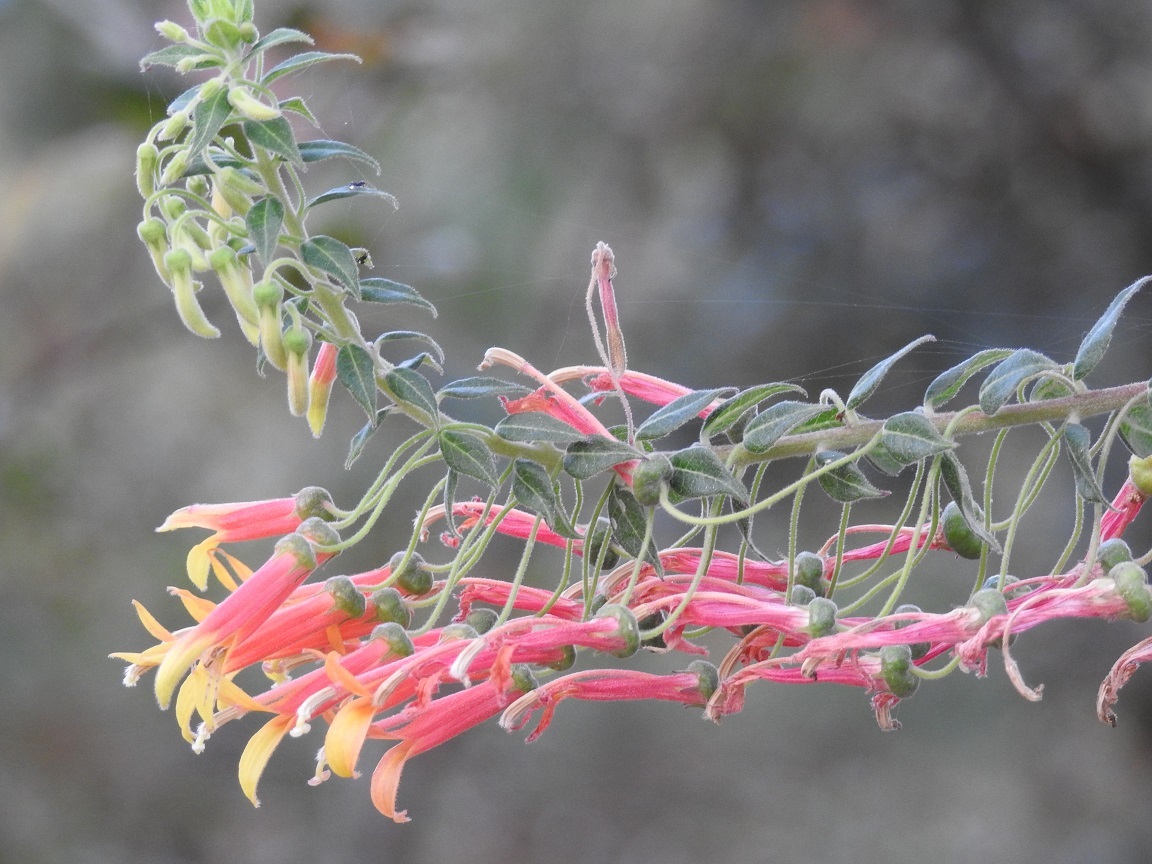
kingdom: Plantae
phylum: Tracheophyta
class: Magnoliopsida
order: Asterales
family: Campanulaceae
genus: Lobelia
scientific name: Lobelia laxiflora
